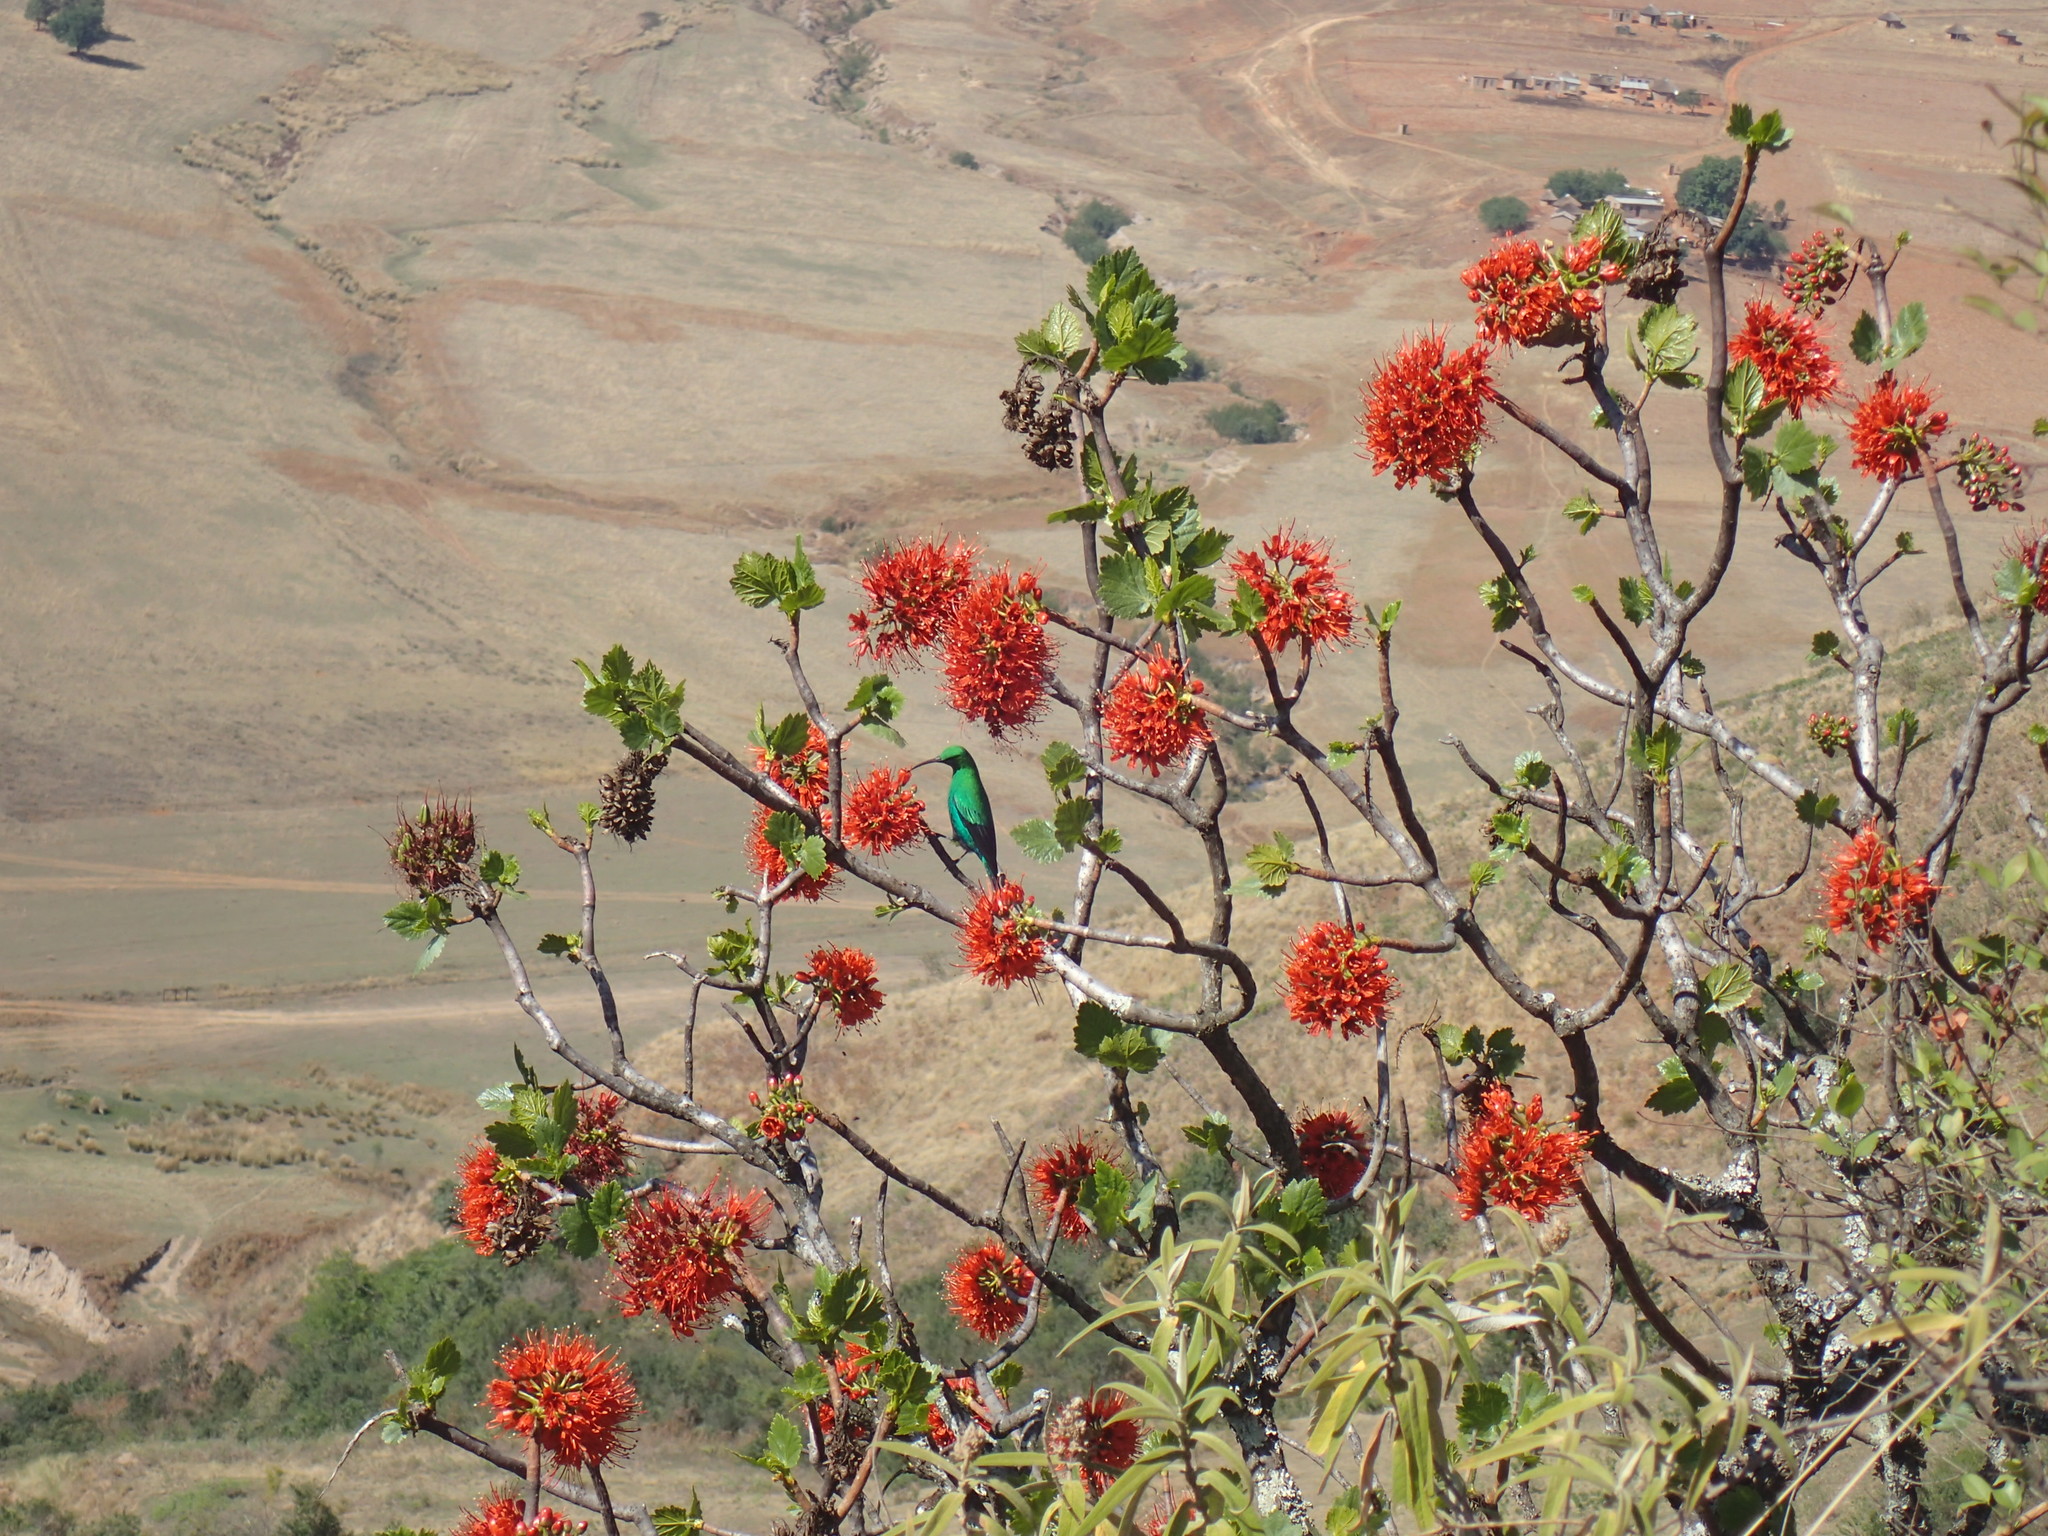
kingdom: Animalia
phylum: Chordata
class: Aves
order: Passeriformes
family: Nectariniidae
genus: Nectarinia
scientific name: Nectarinia famosa
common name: Malachite sunbird
